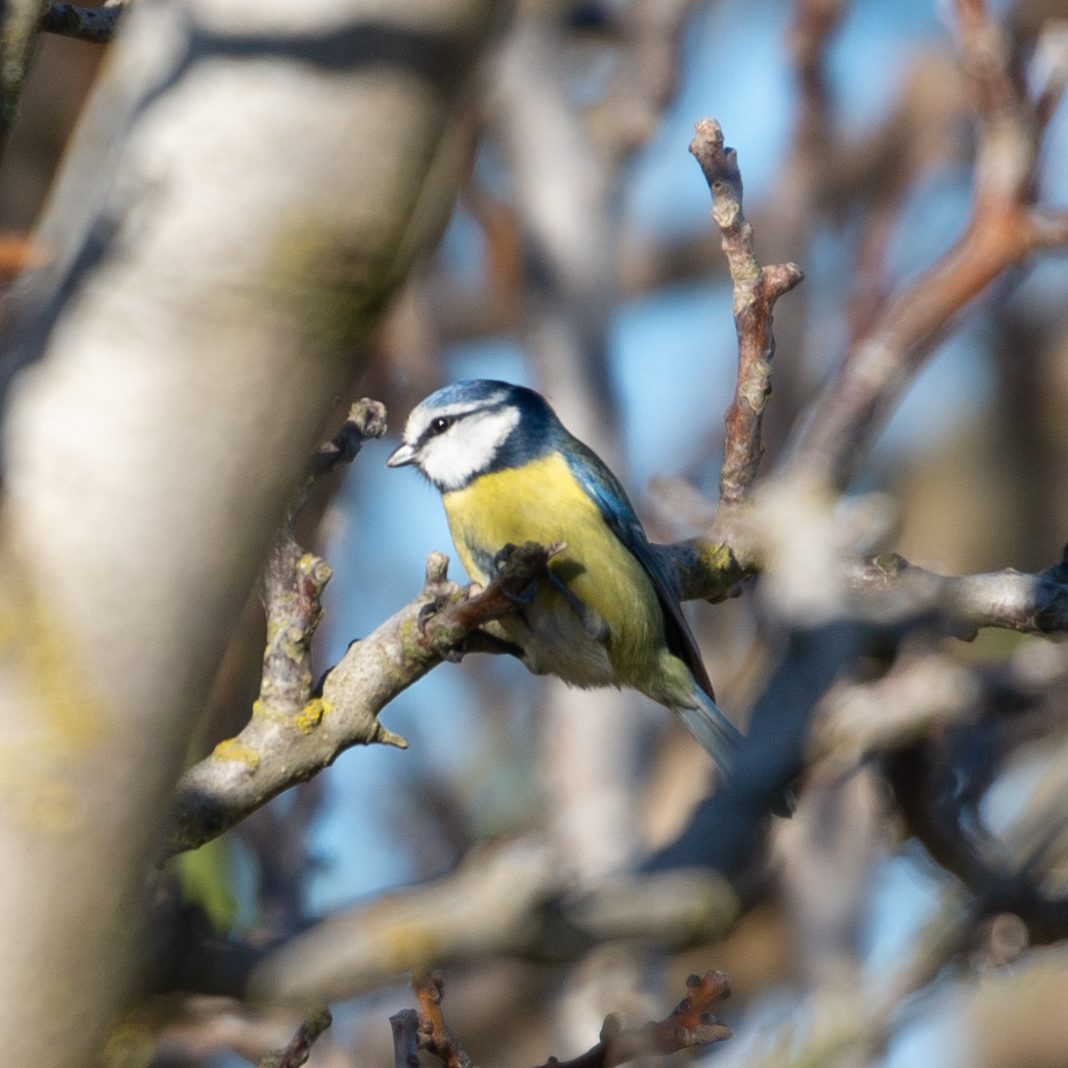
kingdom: Animalia
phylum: Chordata
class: Aves
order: Passeriformes
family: Paridae
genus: Cyanistes
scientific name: Cyanistes caeruleus
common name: Eurasian blue tit
